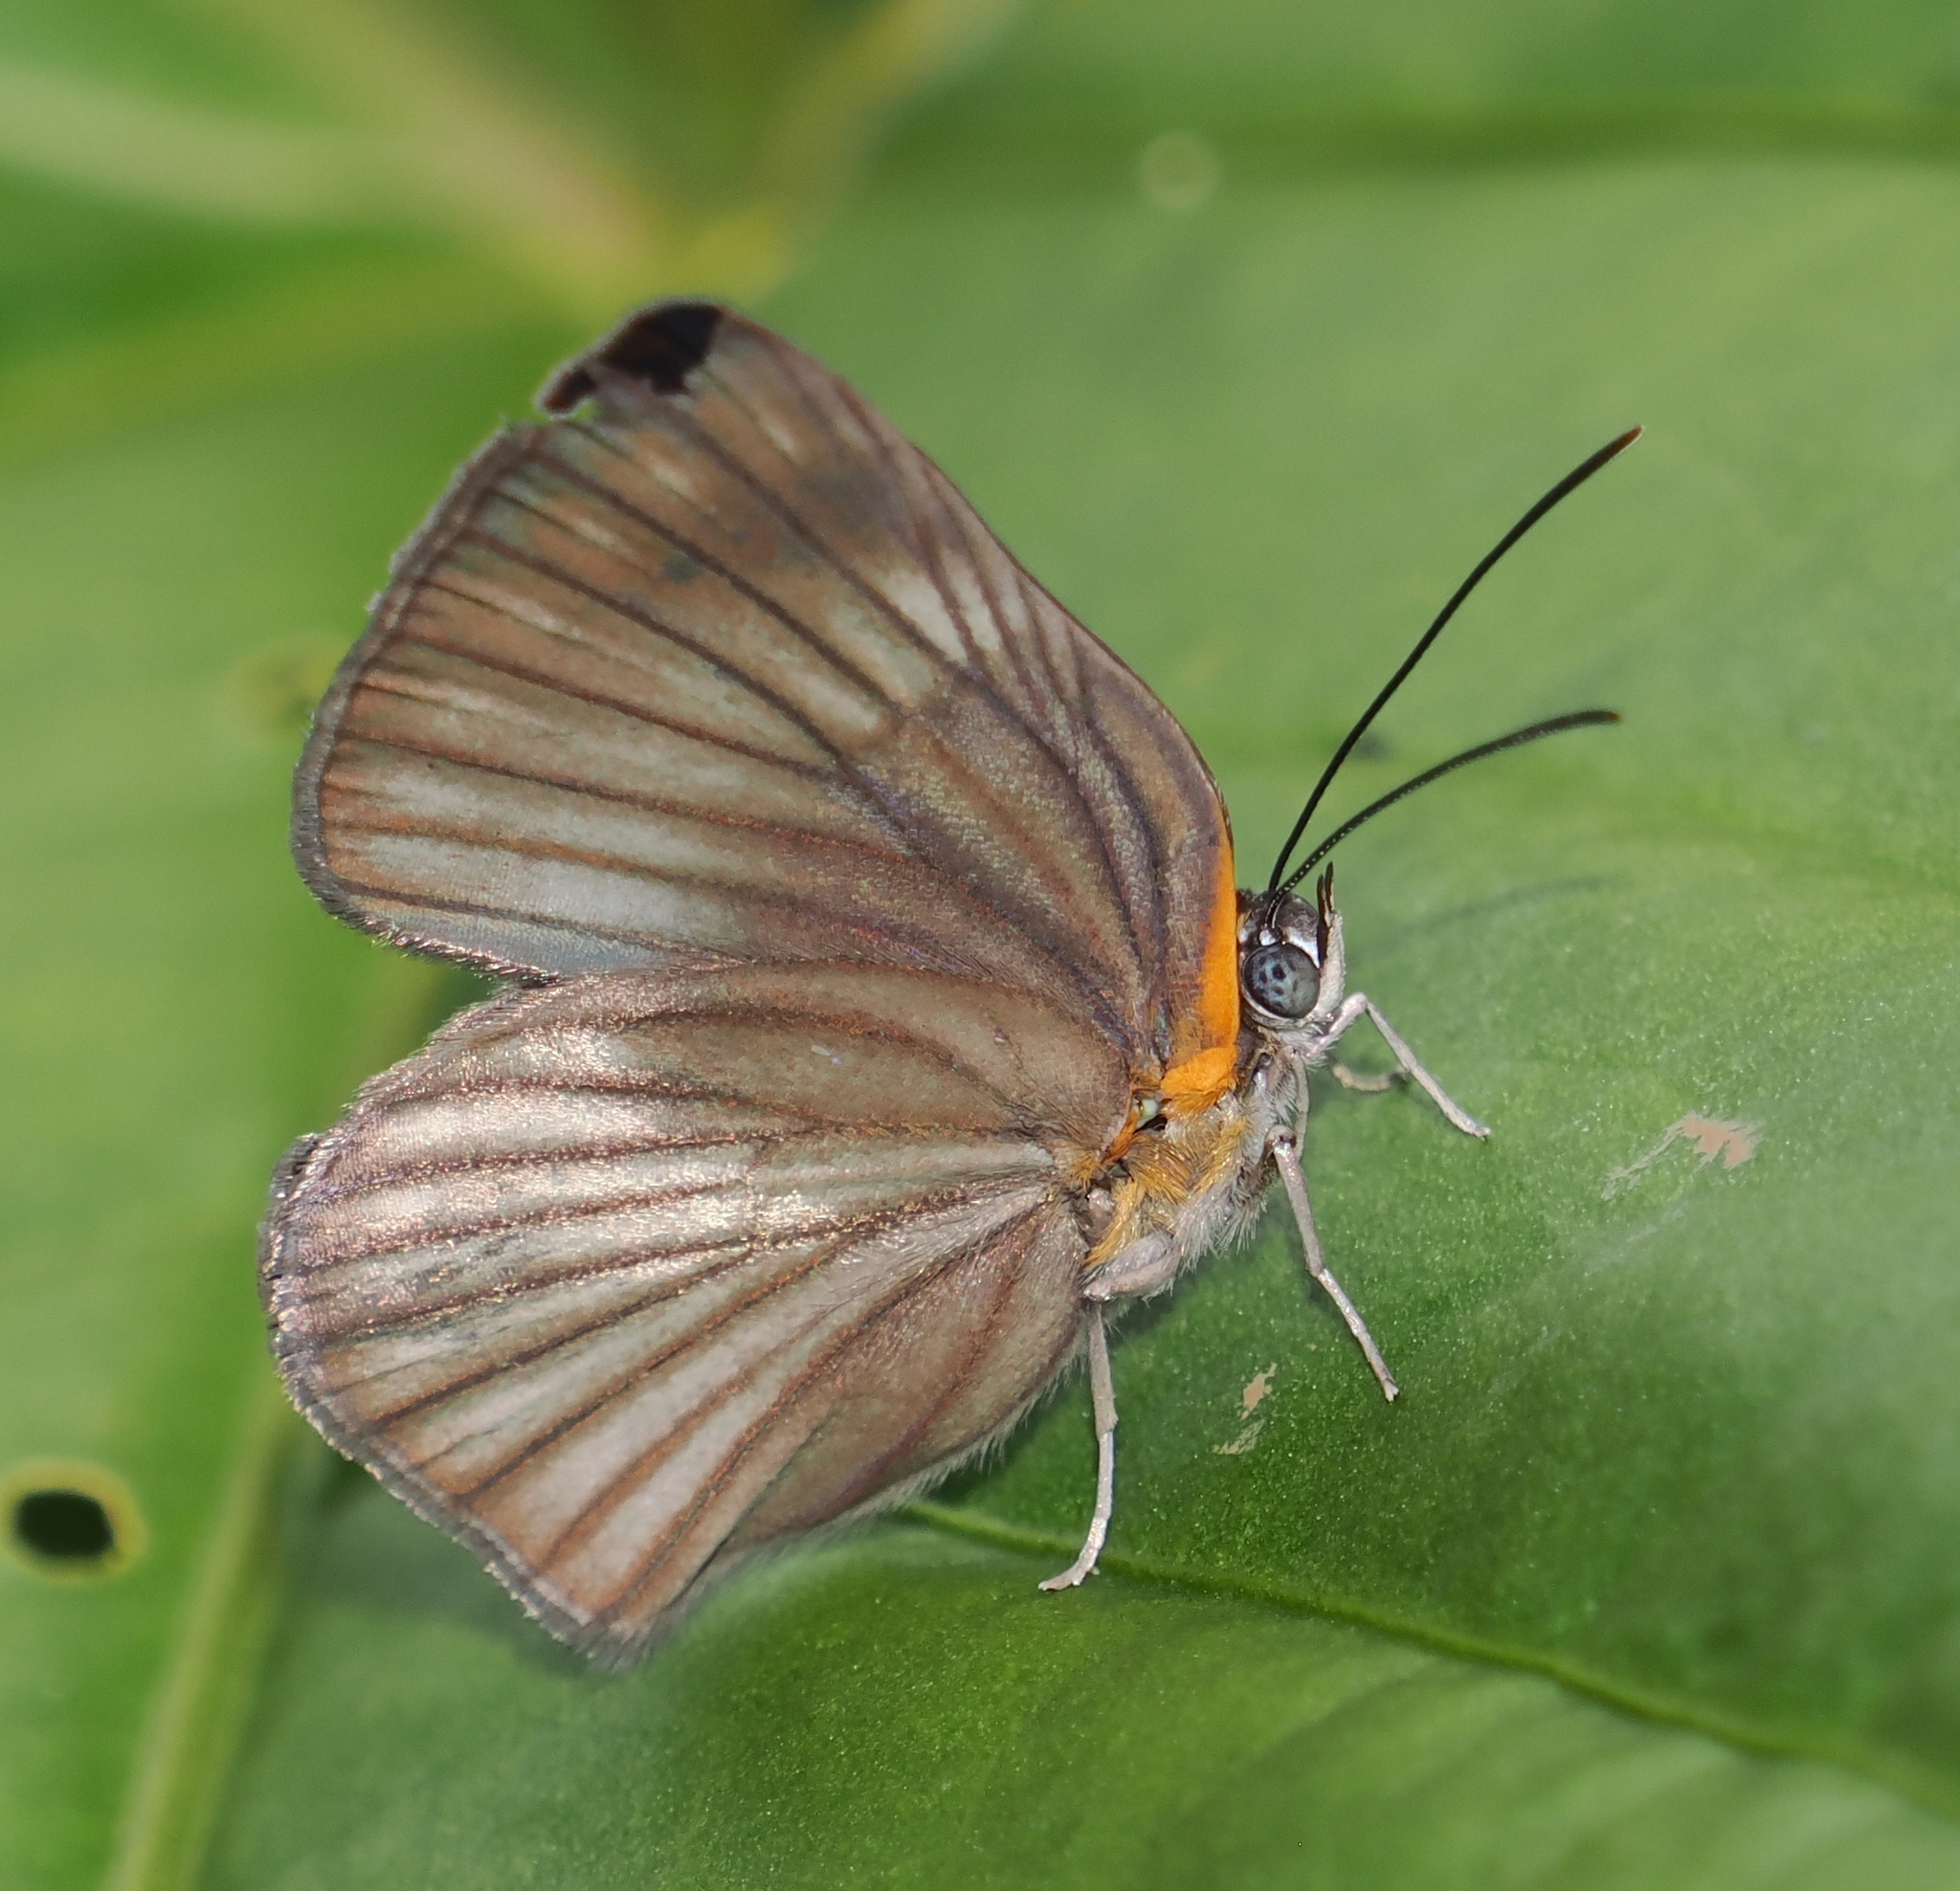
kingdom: Animalia
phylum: Arthropoda
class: Insecta
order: Lepidoptera
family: Nymphalidae
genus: Ethope
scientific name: Ethope
